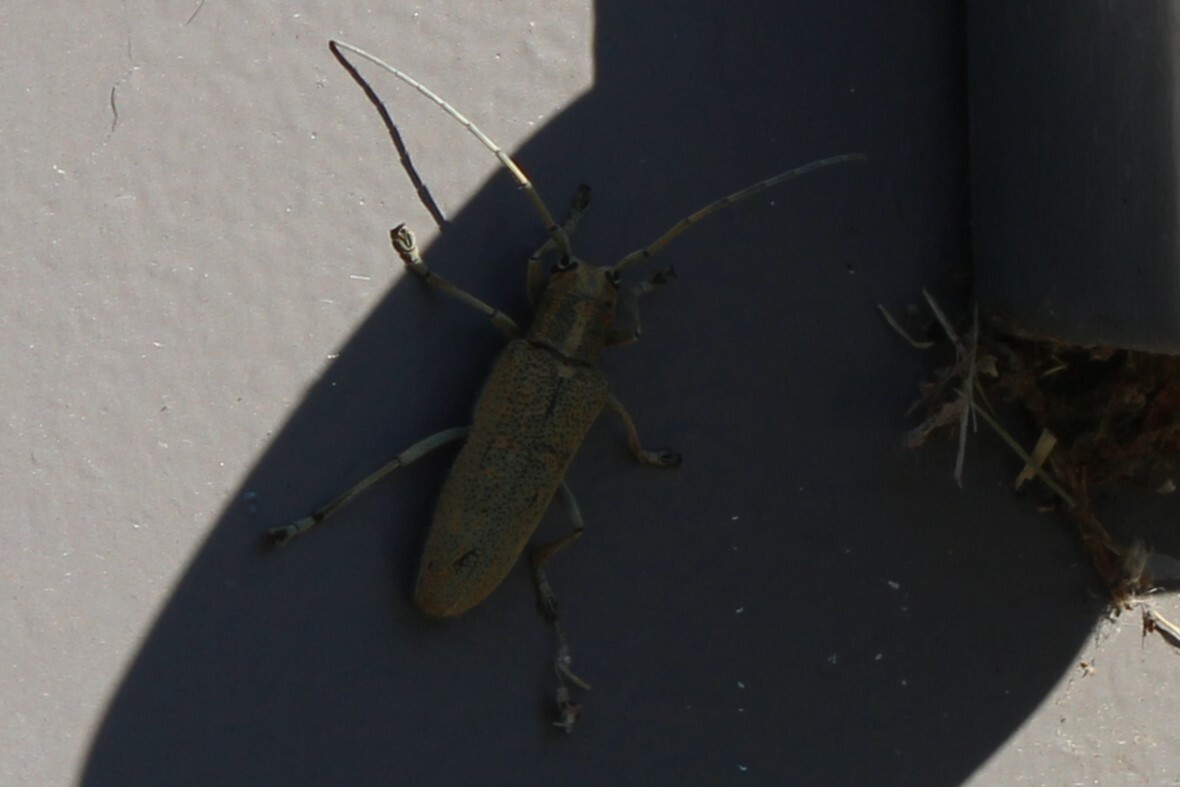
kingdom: Animalia
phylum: Arthropoda
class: Insecta
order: Coleoptera
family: Cerambycidae
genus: Saperda
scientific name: Saperda calcarata
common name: Poplar borer
